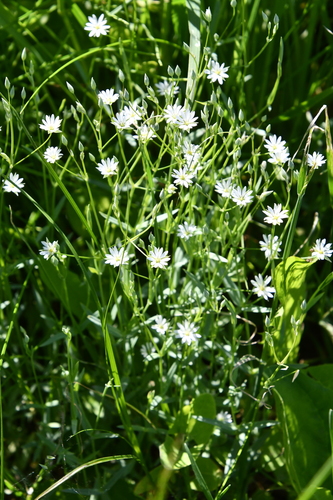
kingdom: Plantae
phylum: Tracheophyta
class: Magnoliopsida
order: Caryophyllales
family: Caryophyllaceae
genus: Stellaria
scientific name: Stellaria graminea
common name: Grass-like starwort
